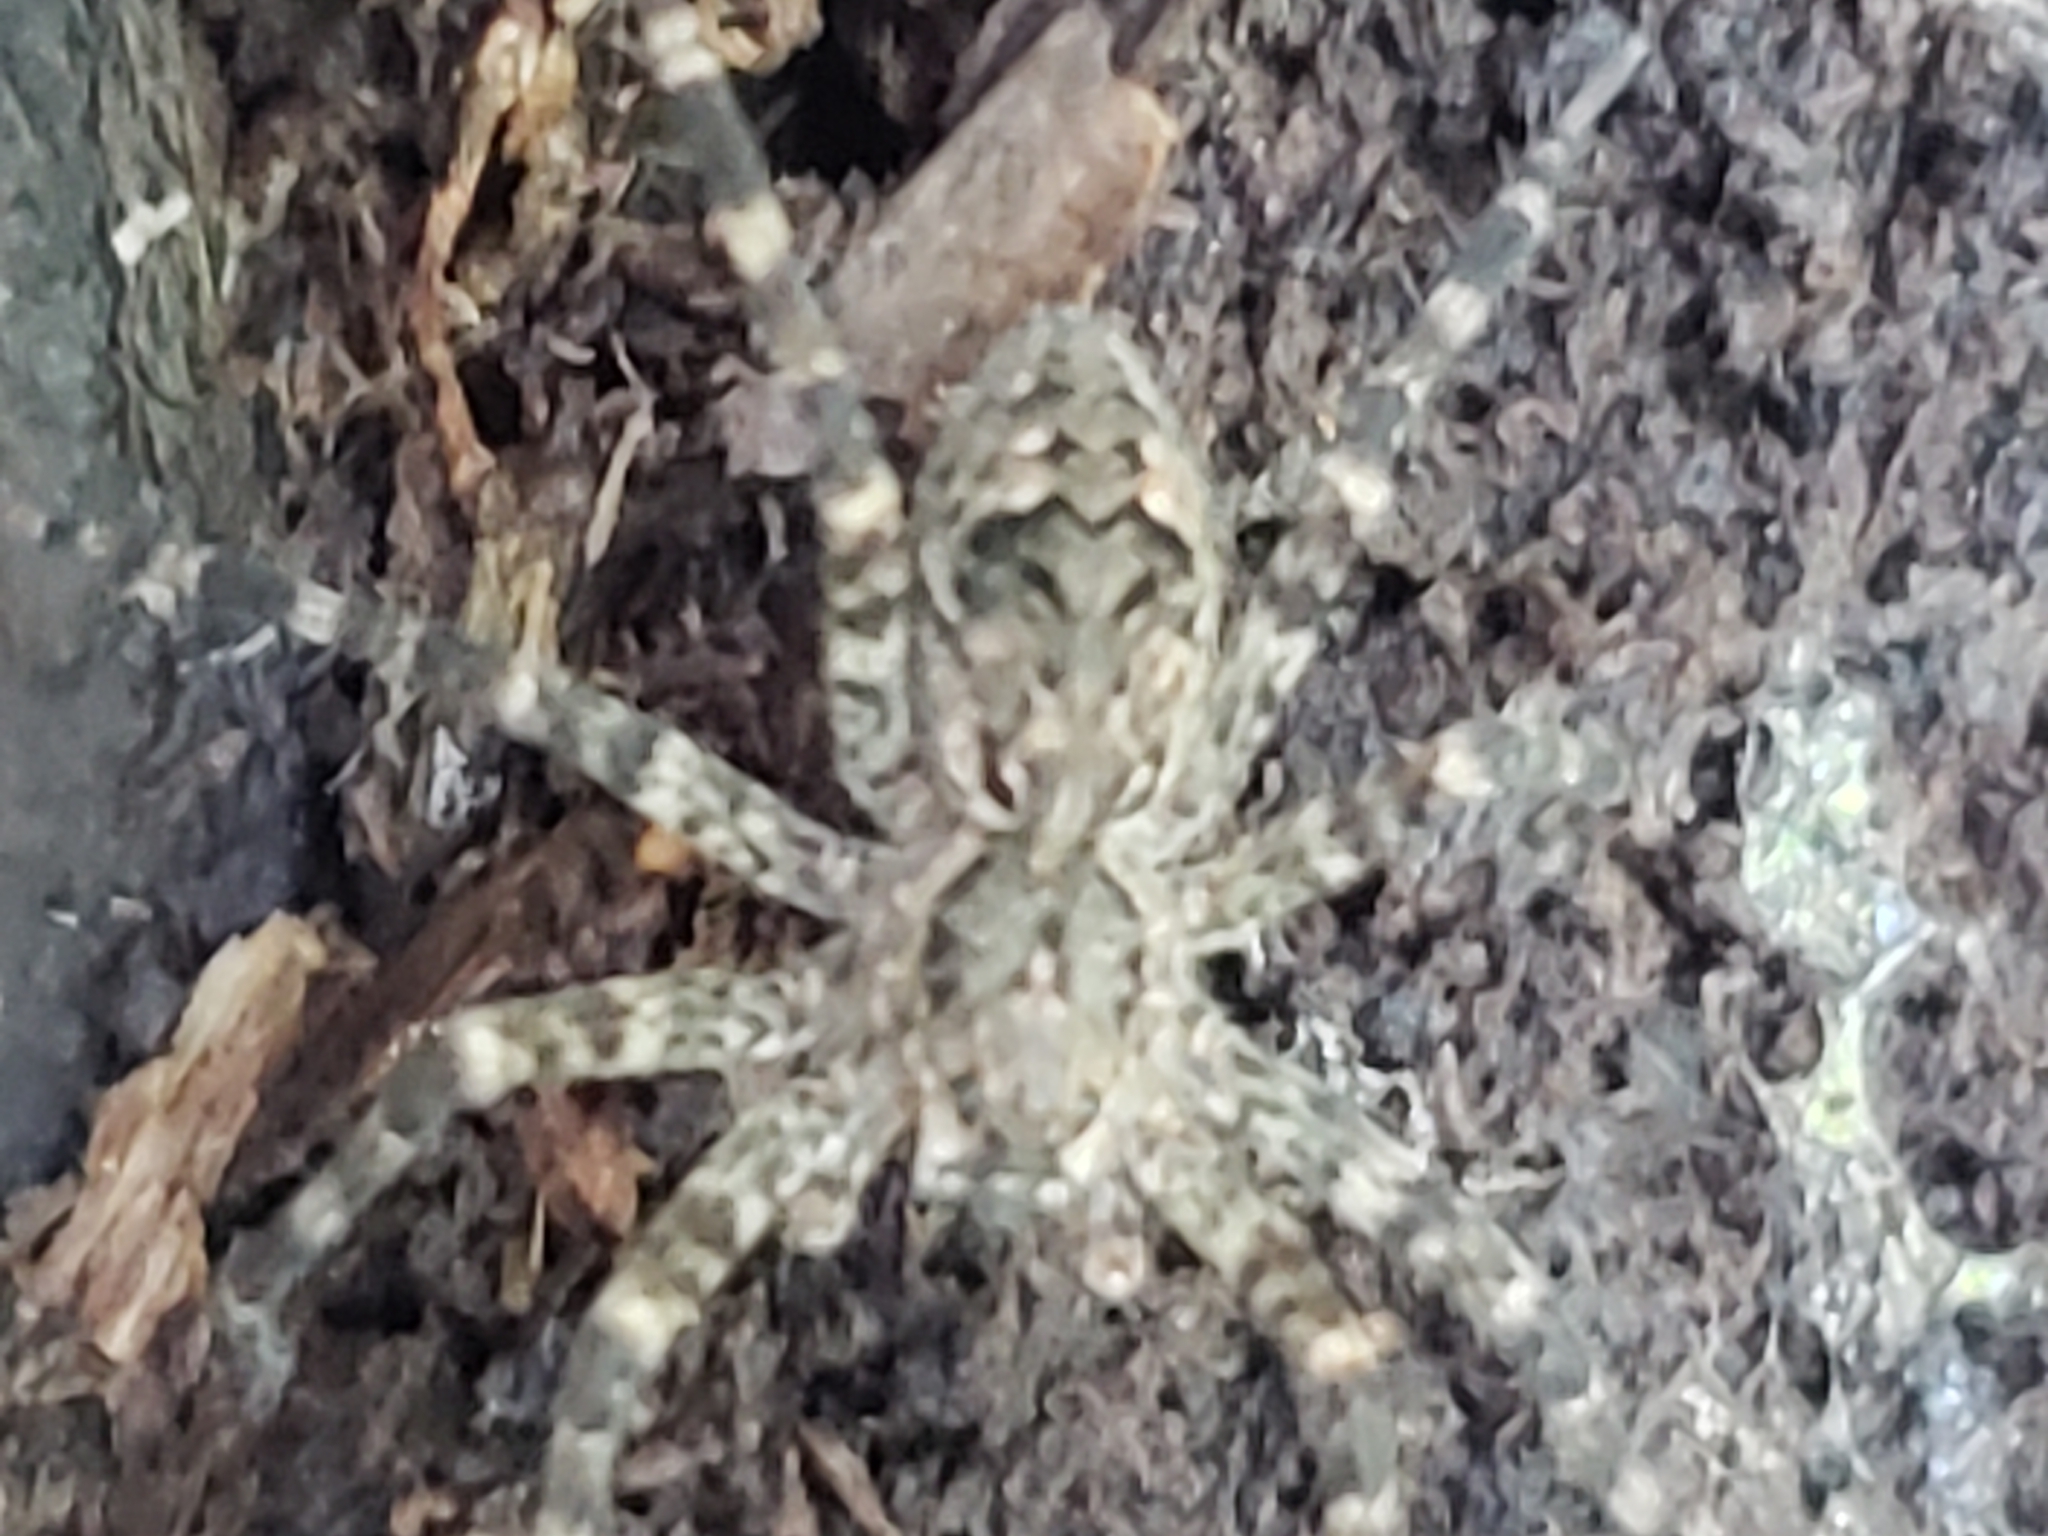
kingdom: Animalia
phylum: Arthropoda
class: Arachnida
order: Araneae
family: Pisauridae
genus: Dolomedes
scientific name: Dolomedes tenebrosus
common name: Dark fishing spider
